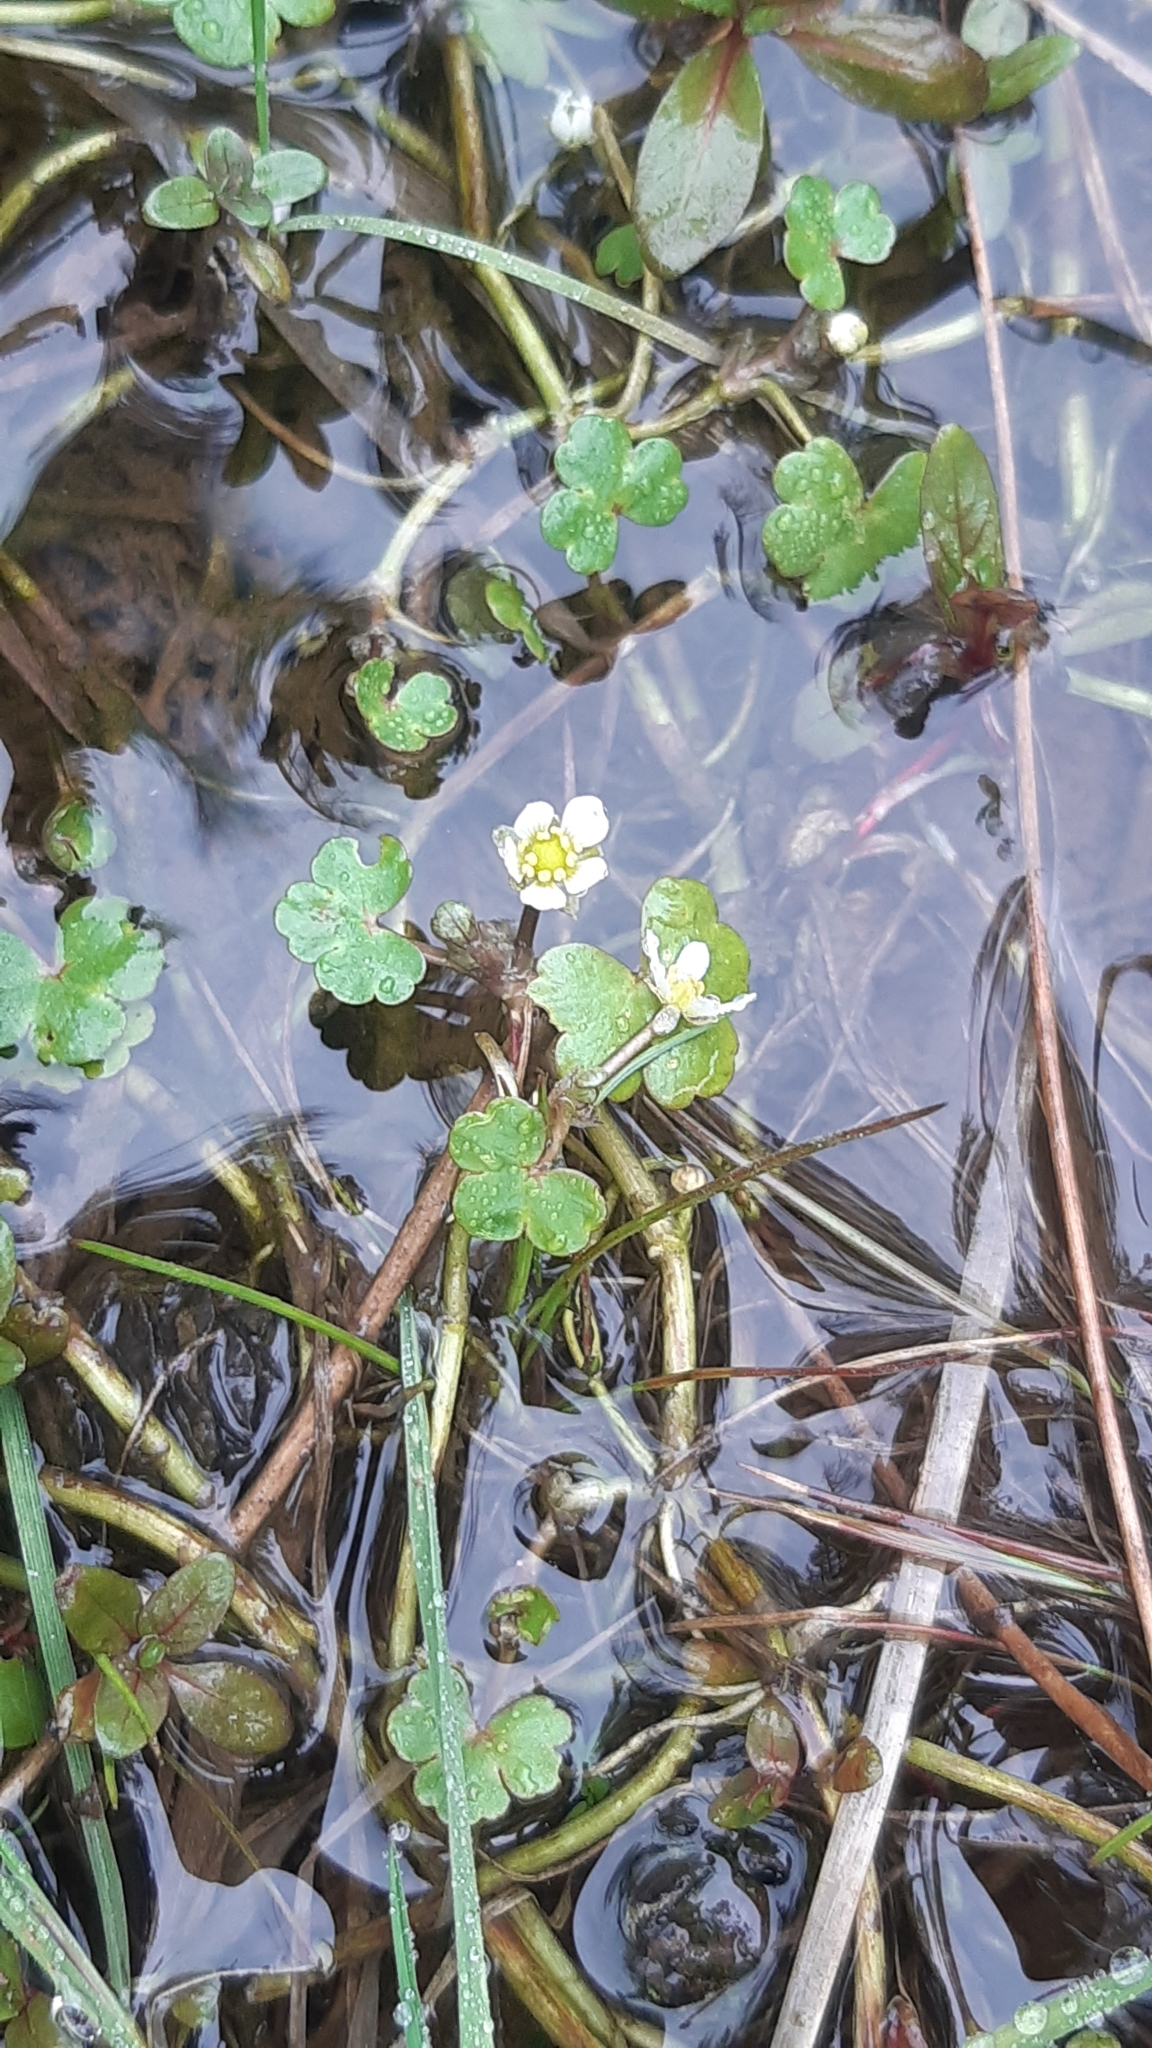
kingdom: Plantae
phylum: Tracheophyta
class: Magnoliopsida
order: Ranunculales
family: Ranunculaceae
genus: Ranunculus
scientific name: Ranunculus omiophyllus
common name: Round-leaved crowfoot
